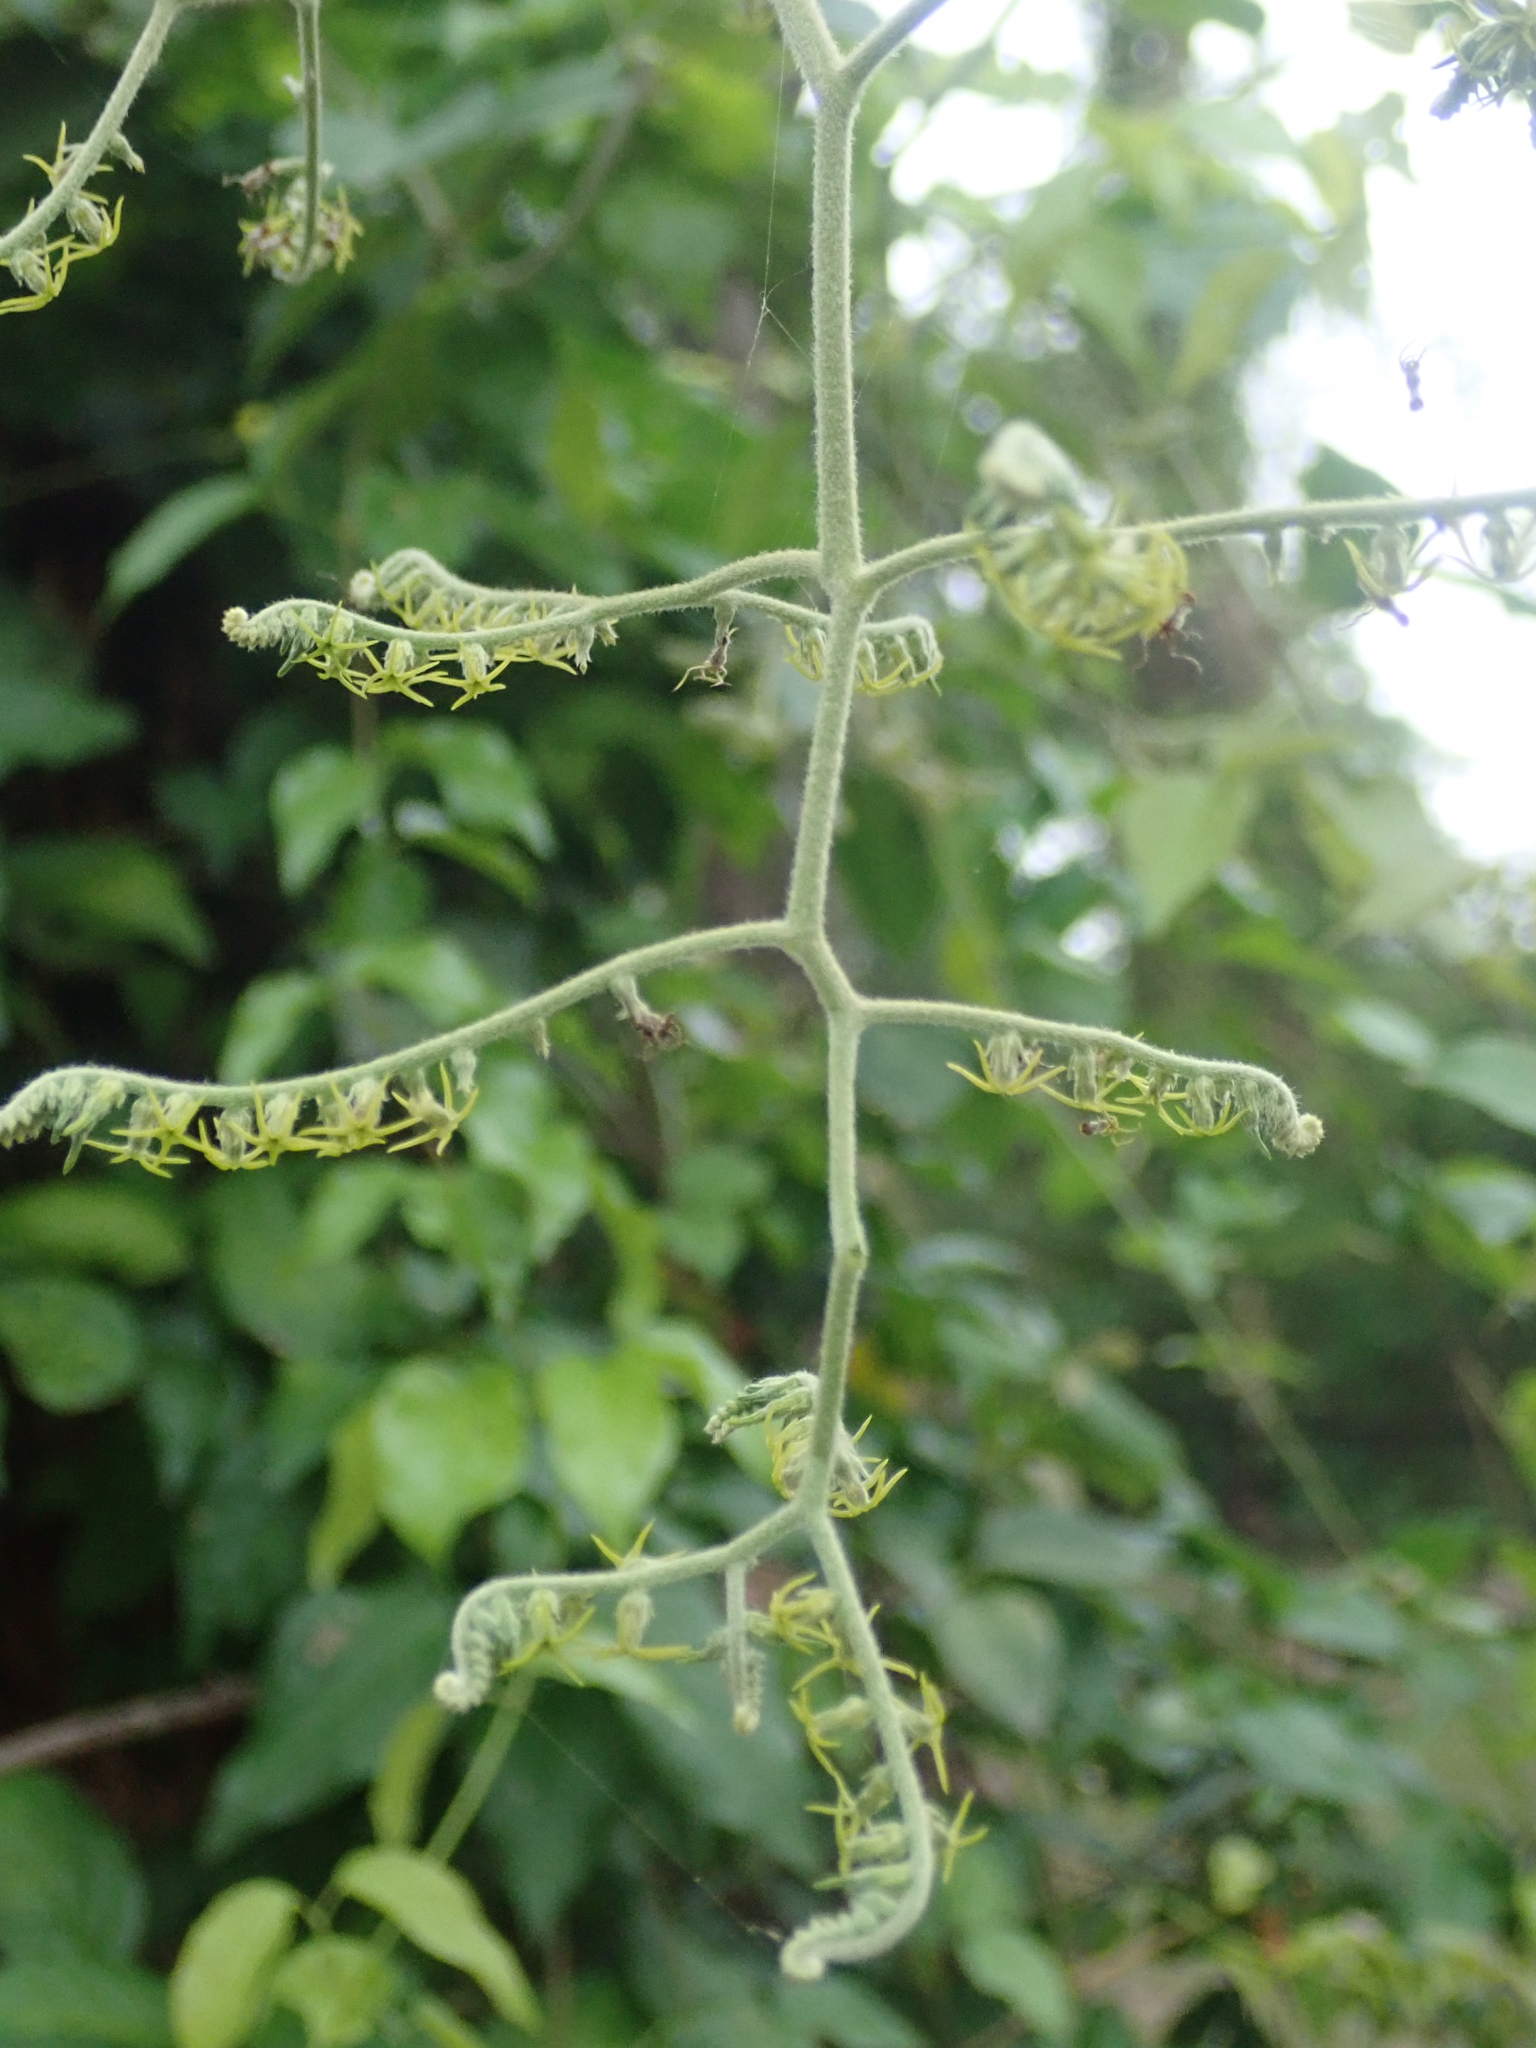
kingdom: Plantae
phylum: Tracheophyta
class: Magnoliopsida
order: Boraginales
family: Heliotropiaceae
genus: Myriopus
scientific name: Myriopus salzmannii
